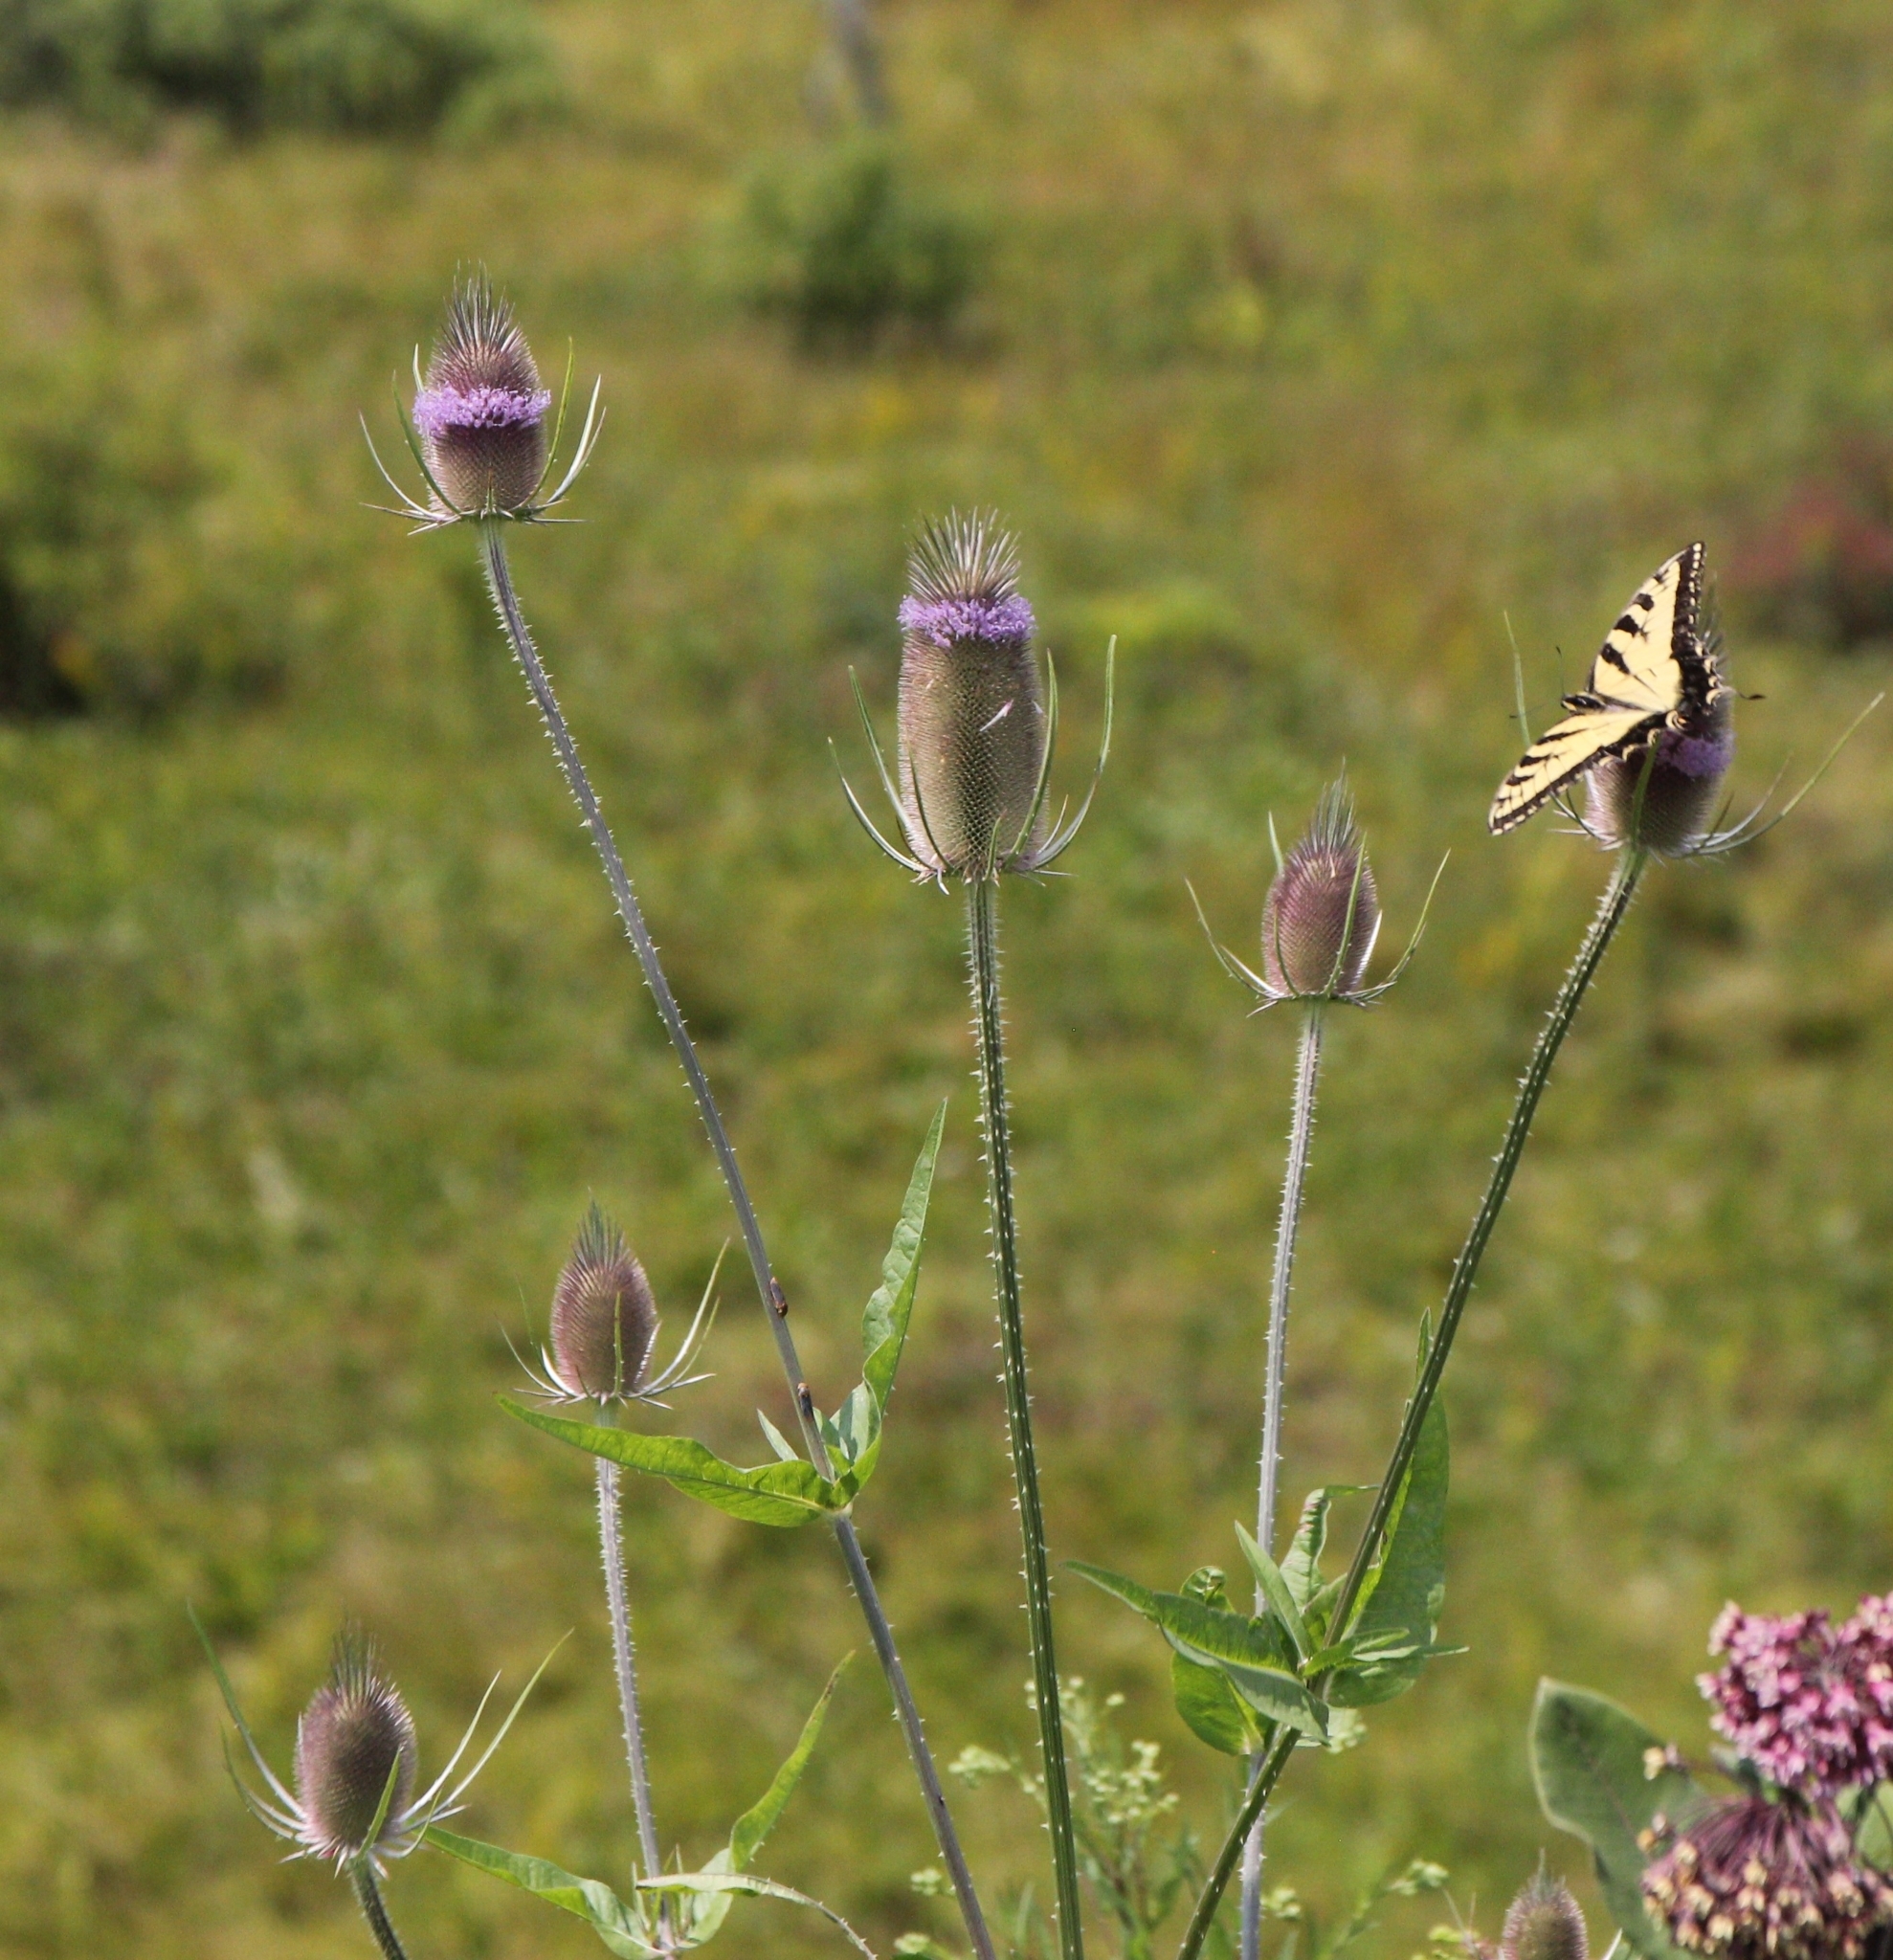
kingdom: Plantae
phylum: Tracheophyta
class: Magnoliopsida
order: Dipsacales
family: Caprifoliaceae
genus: Dipsacus
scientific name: Dipsacus fullonum
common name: Teasel
